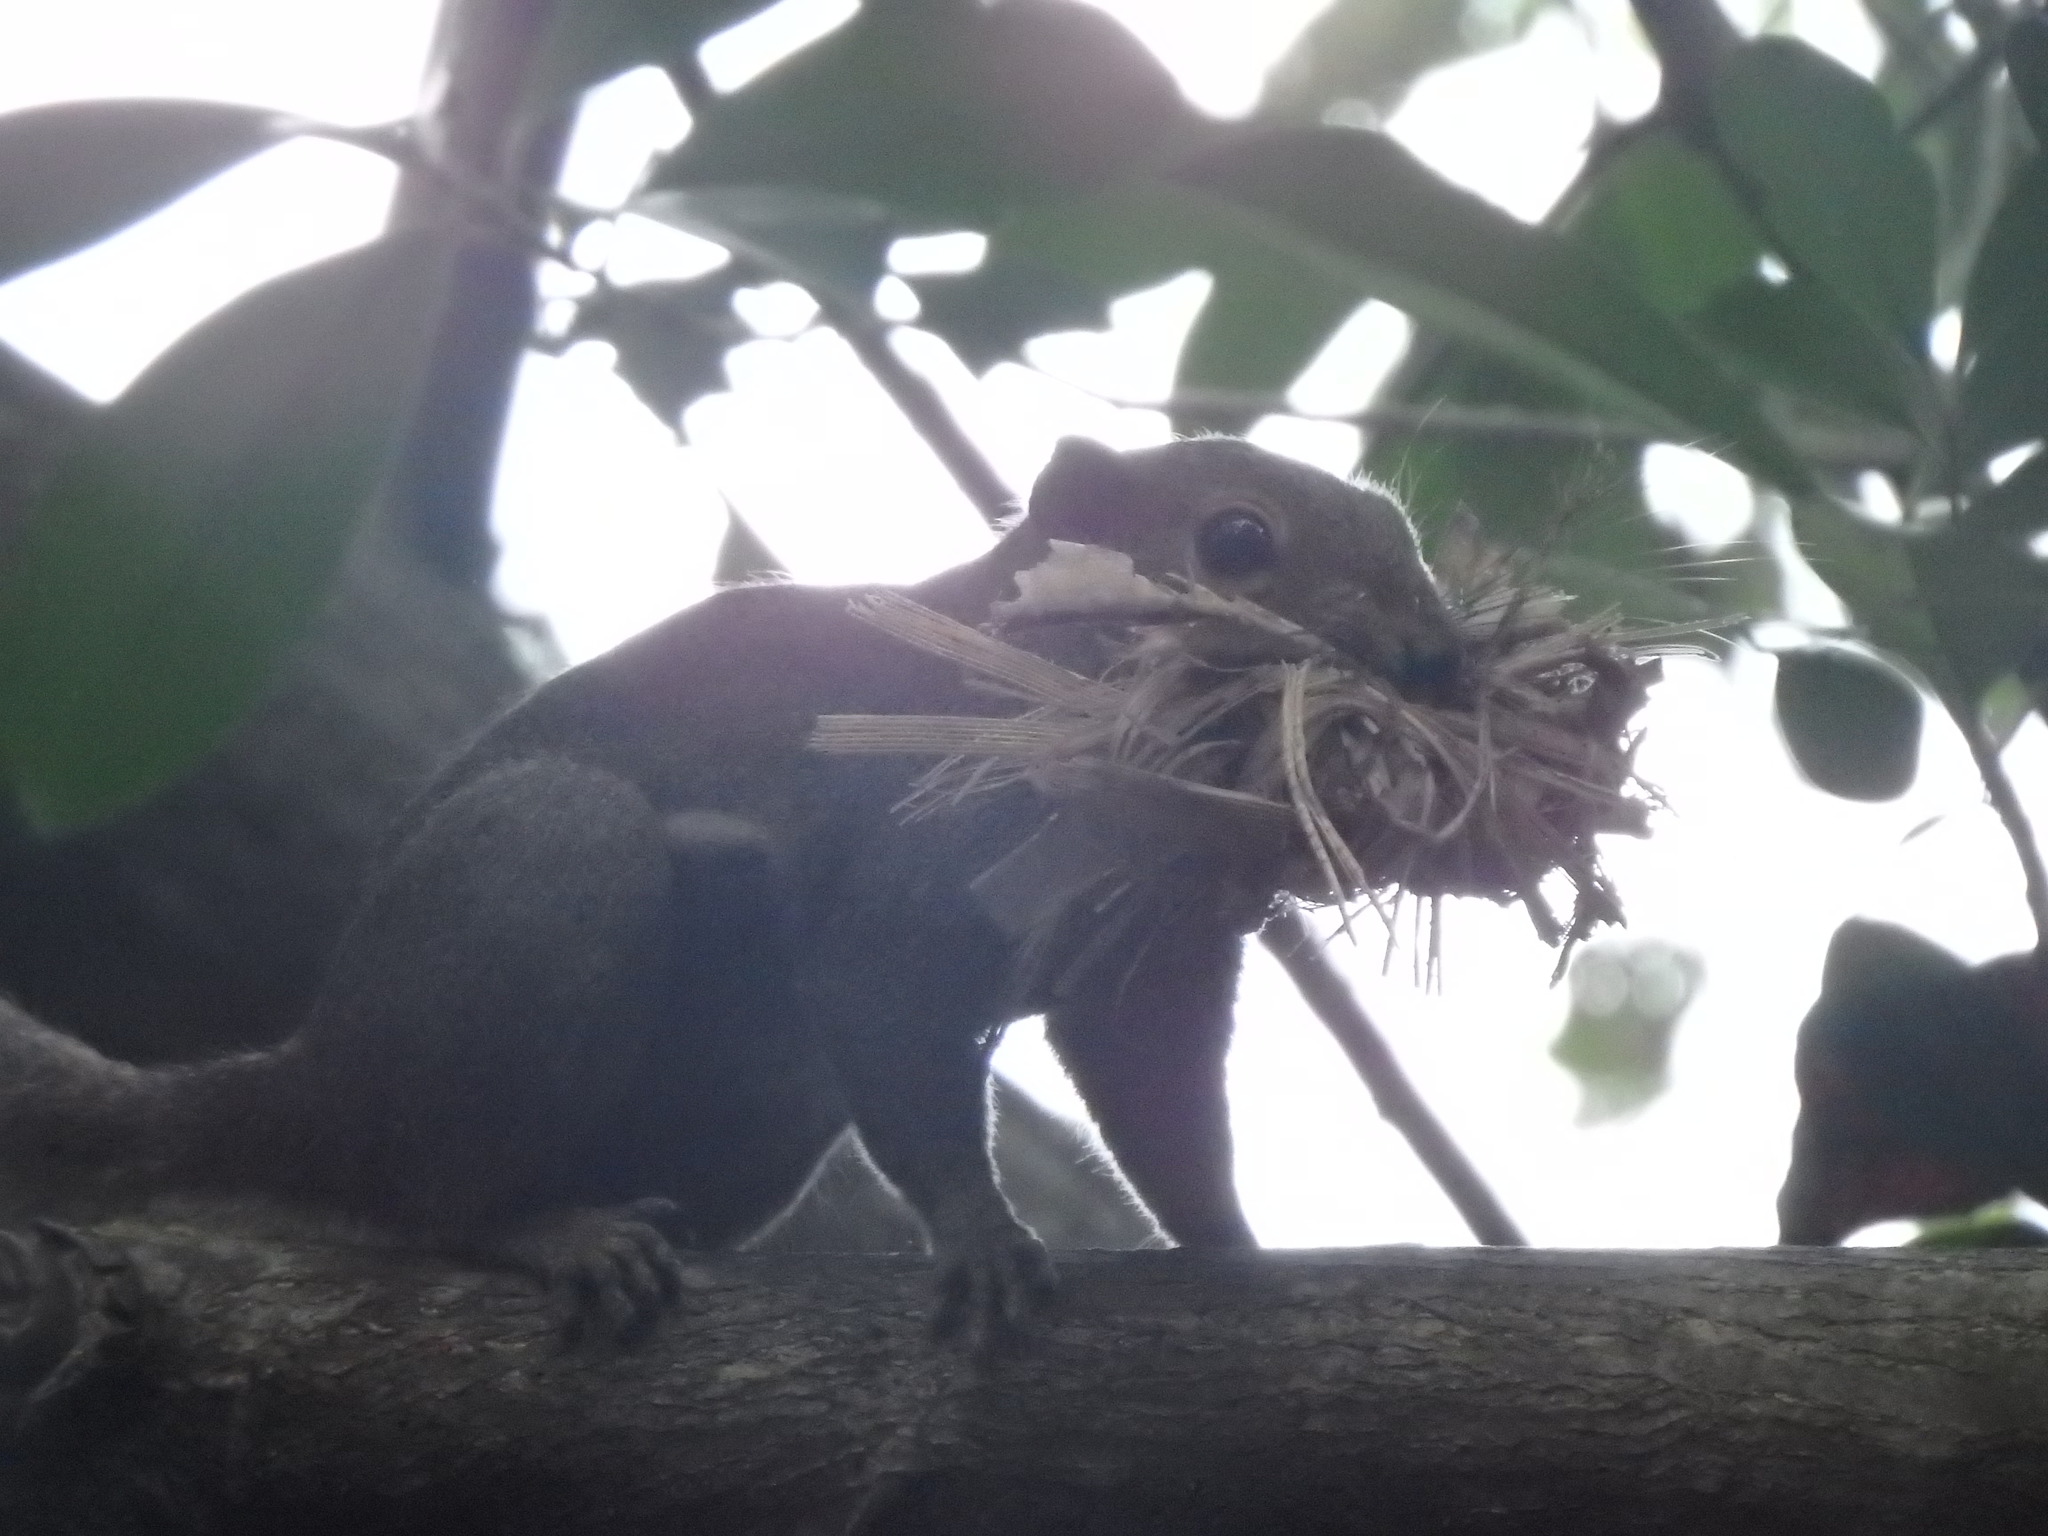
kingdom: Animalia
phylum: Chordata
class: Mammalia
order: Rodentia
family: Sciuridae
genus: Callosciurus
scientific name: Callosciurus notatus
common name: Plantain squirrel
